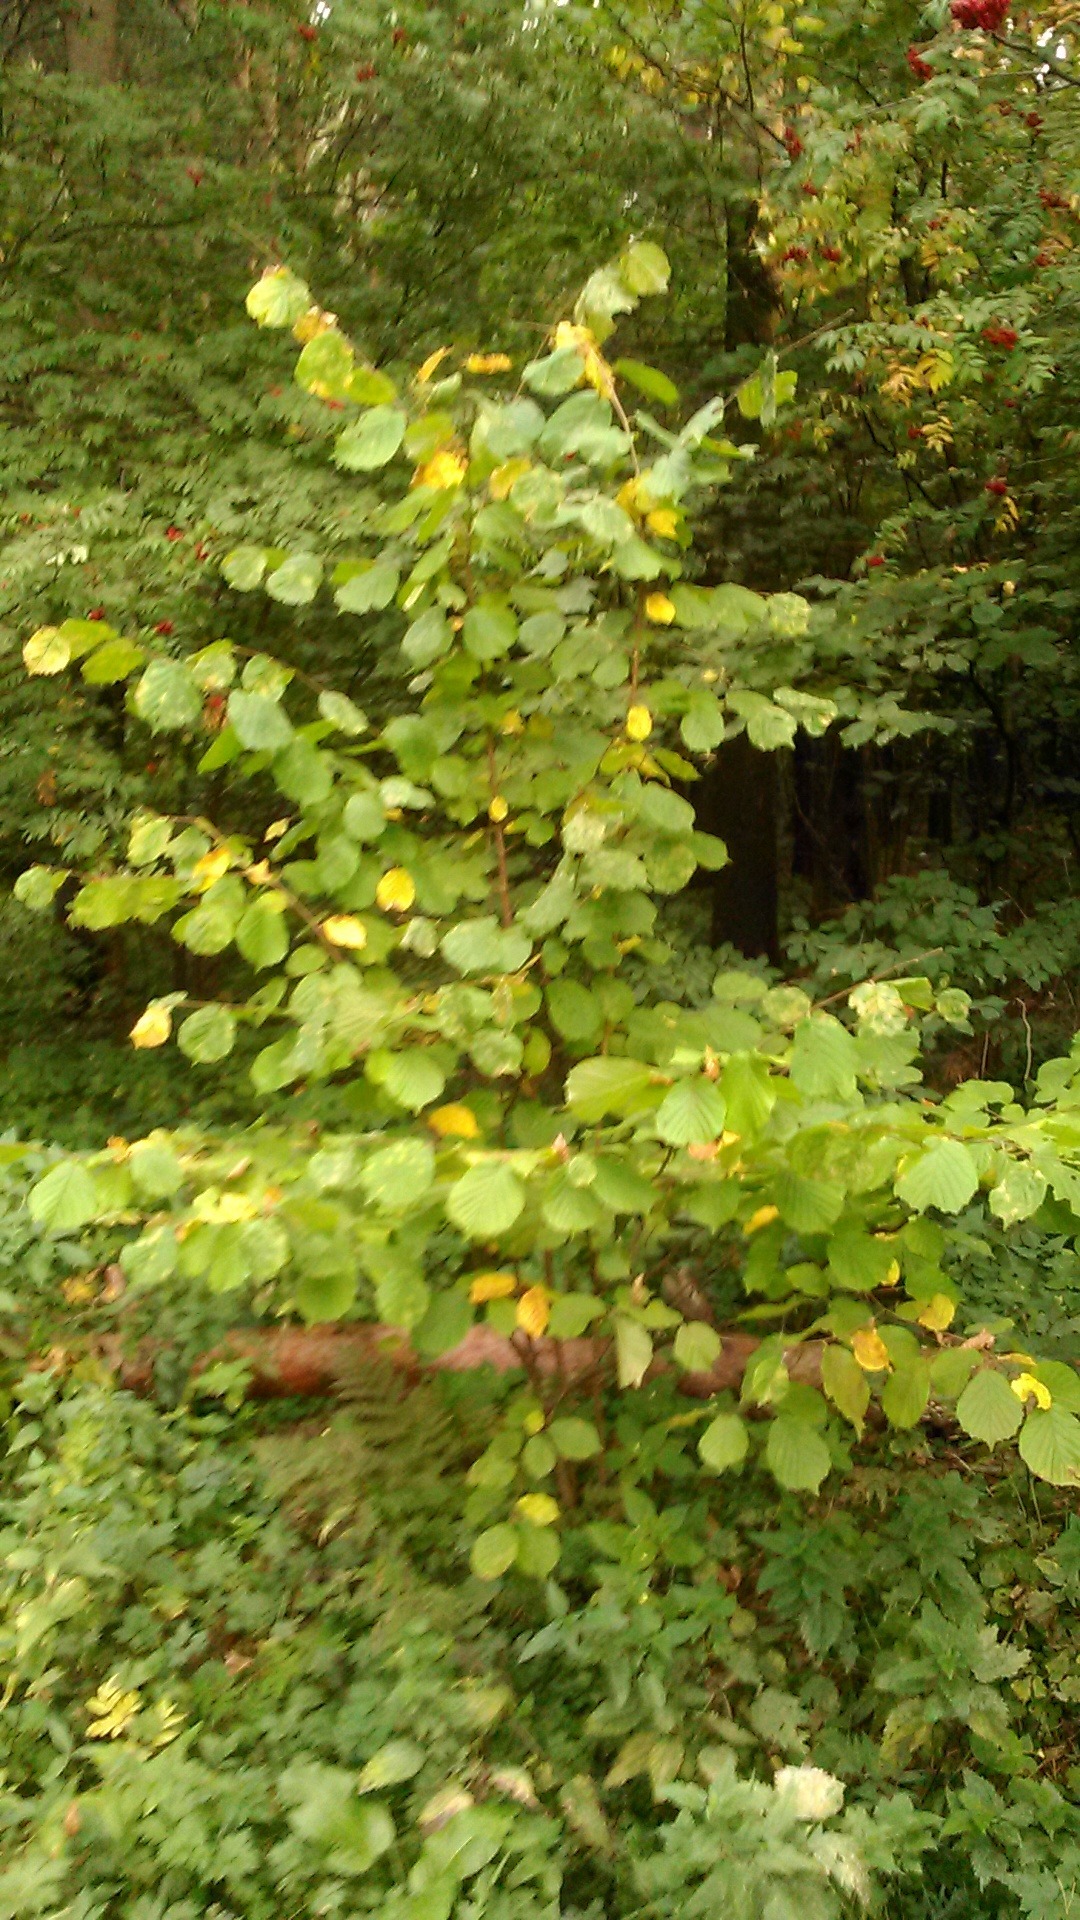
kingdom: Plantae
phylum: Tracheophyta
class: Magnoliopsida
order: Fagales
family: Betulaceae
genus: Corylus
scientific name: Corylus avellana
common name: European hazel
